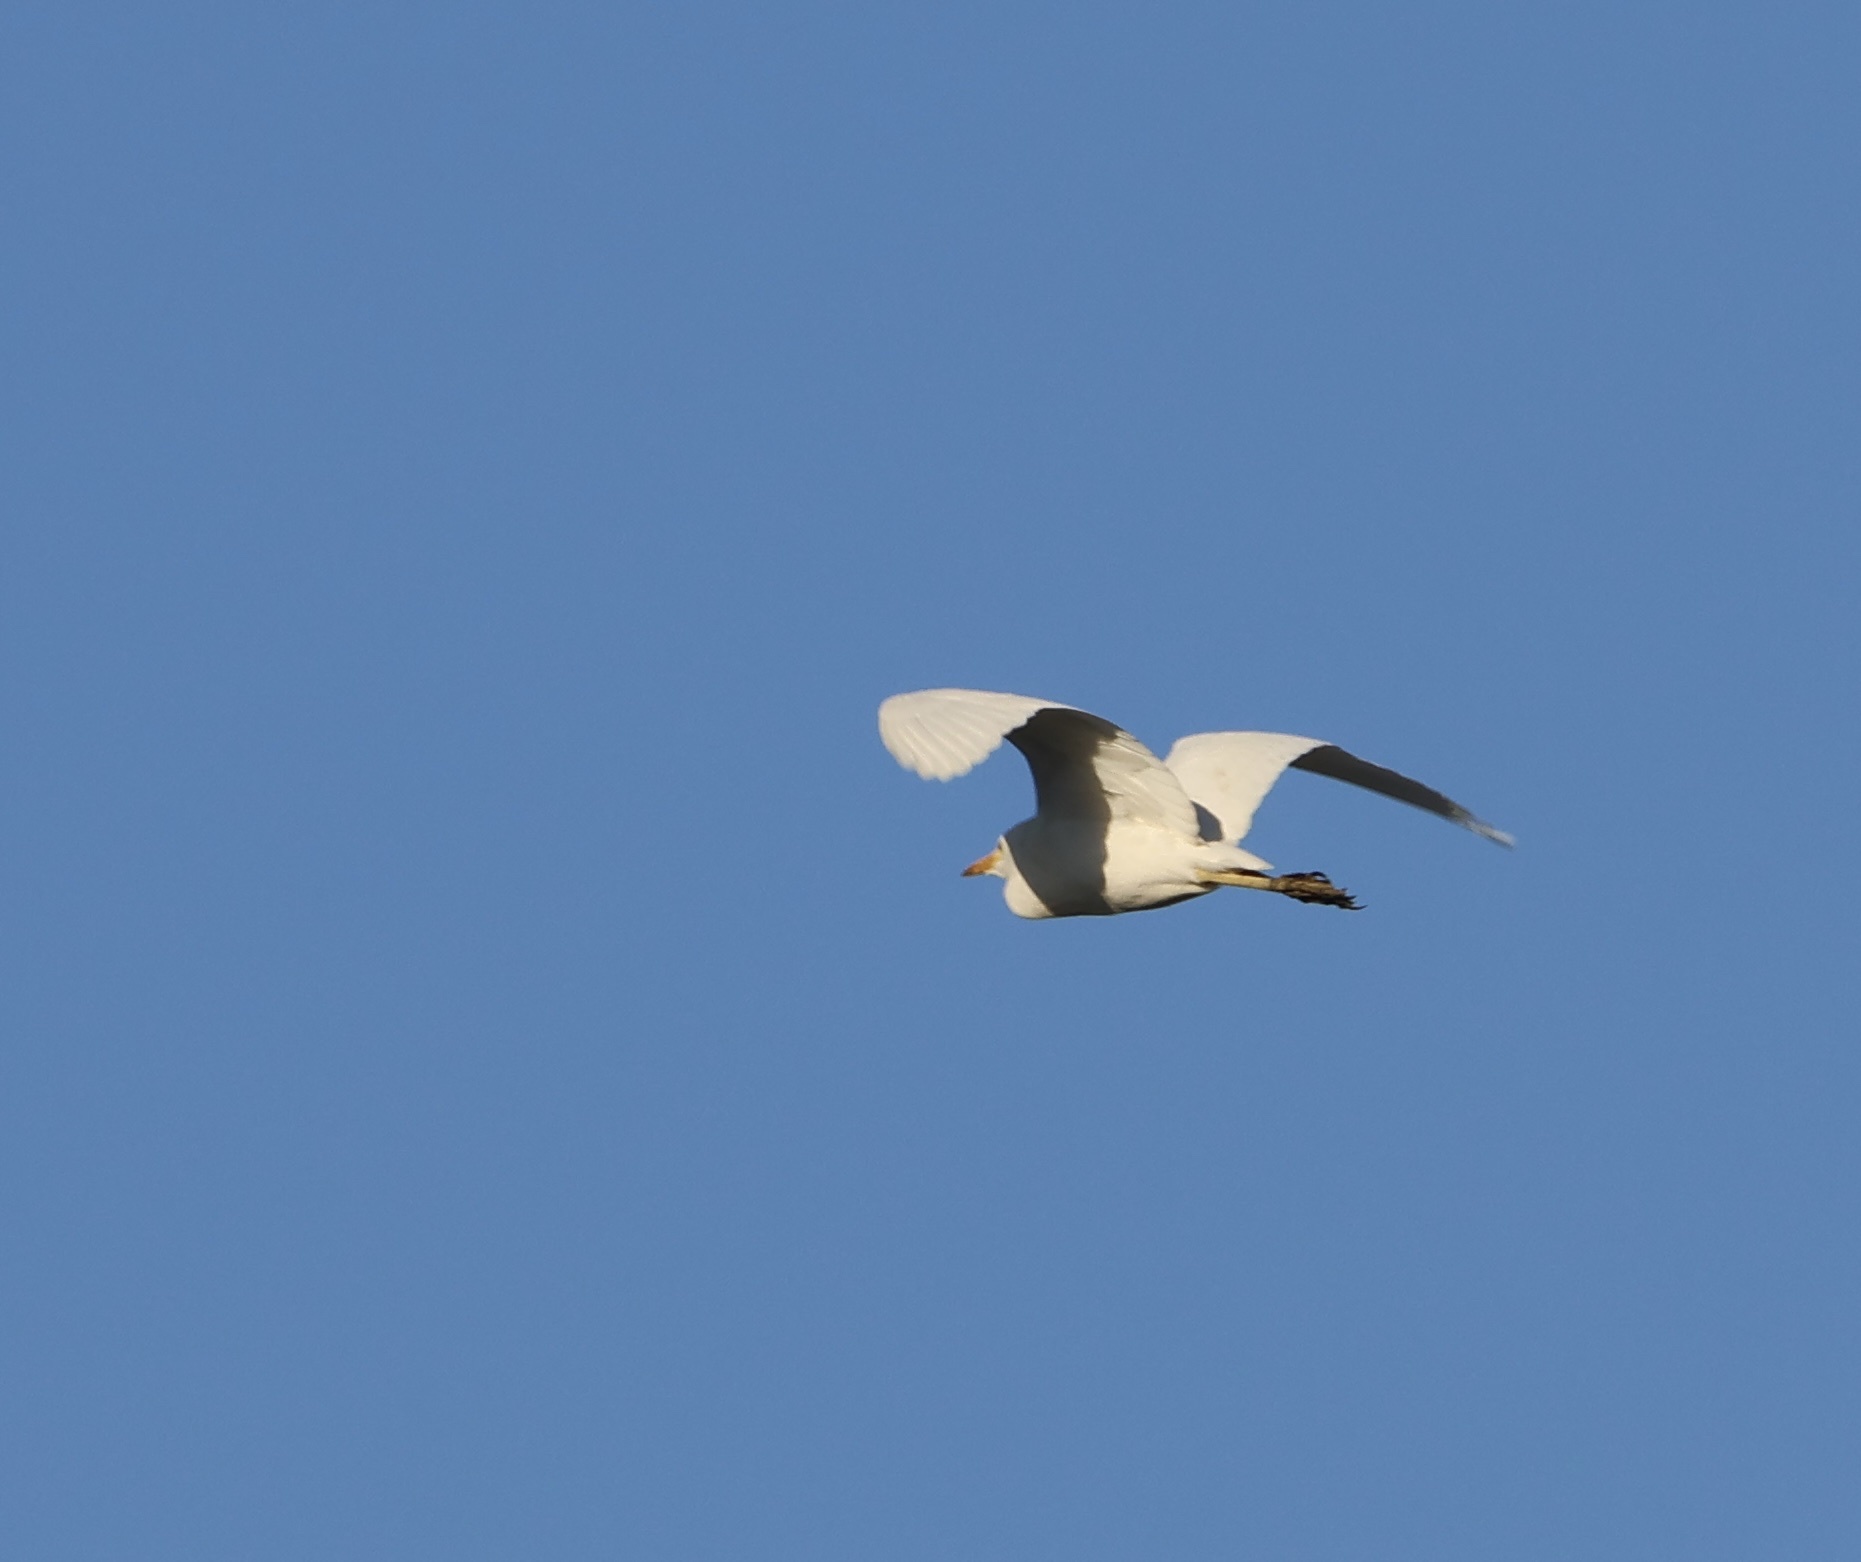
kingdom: Animalia
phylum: Chordata
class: Aves
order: Pelecaniformes
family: Ardeidae
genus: Bubulcus
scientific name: Bubulcus ibis
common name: Cattle egret
